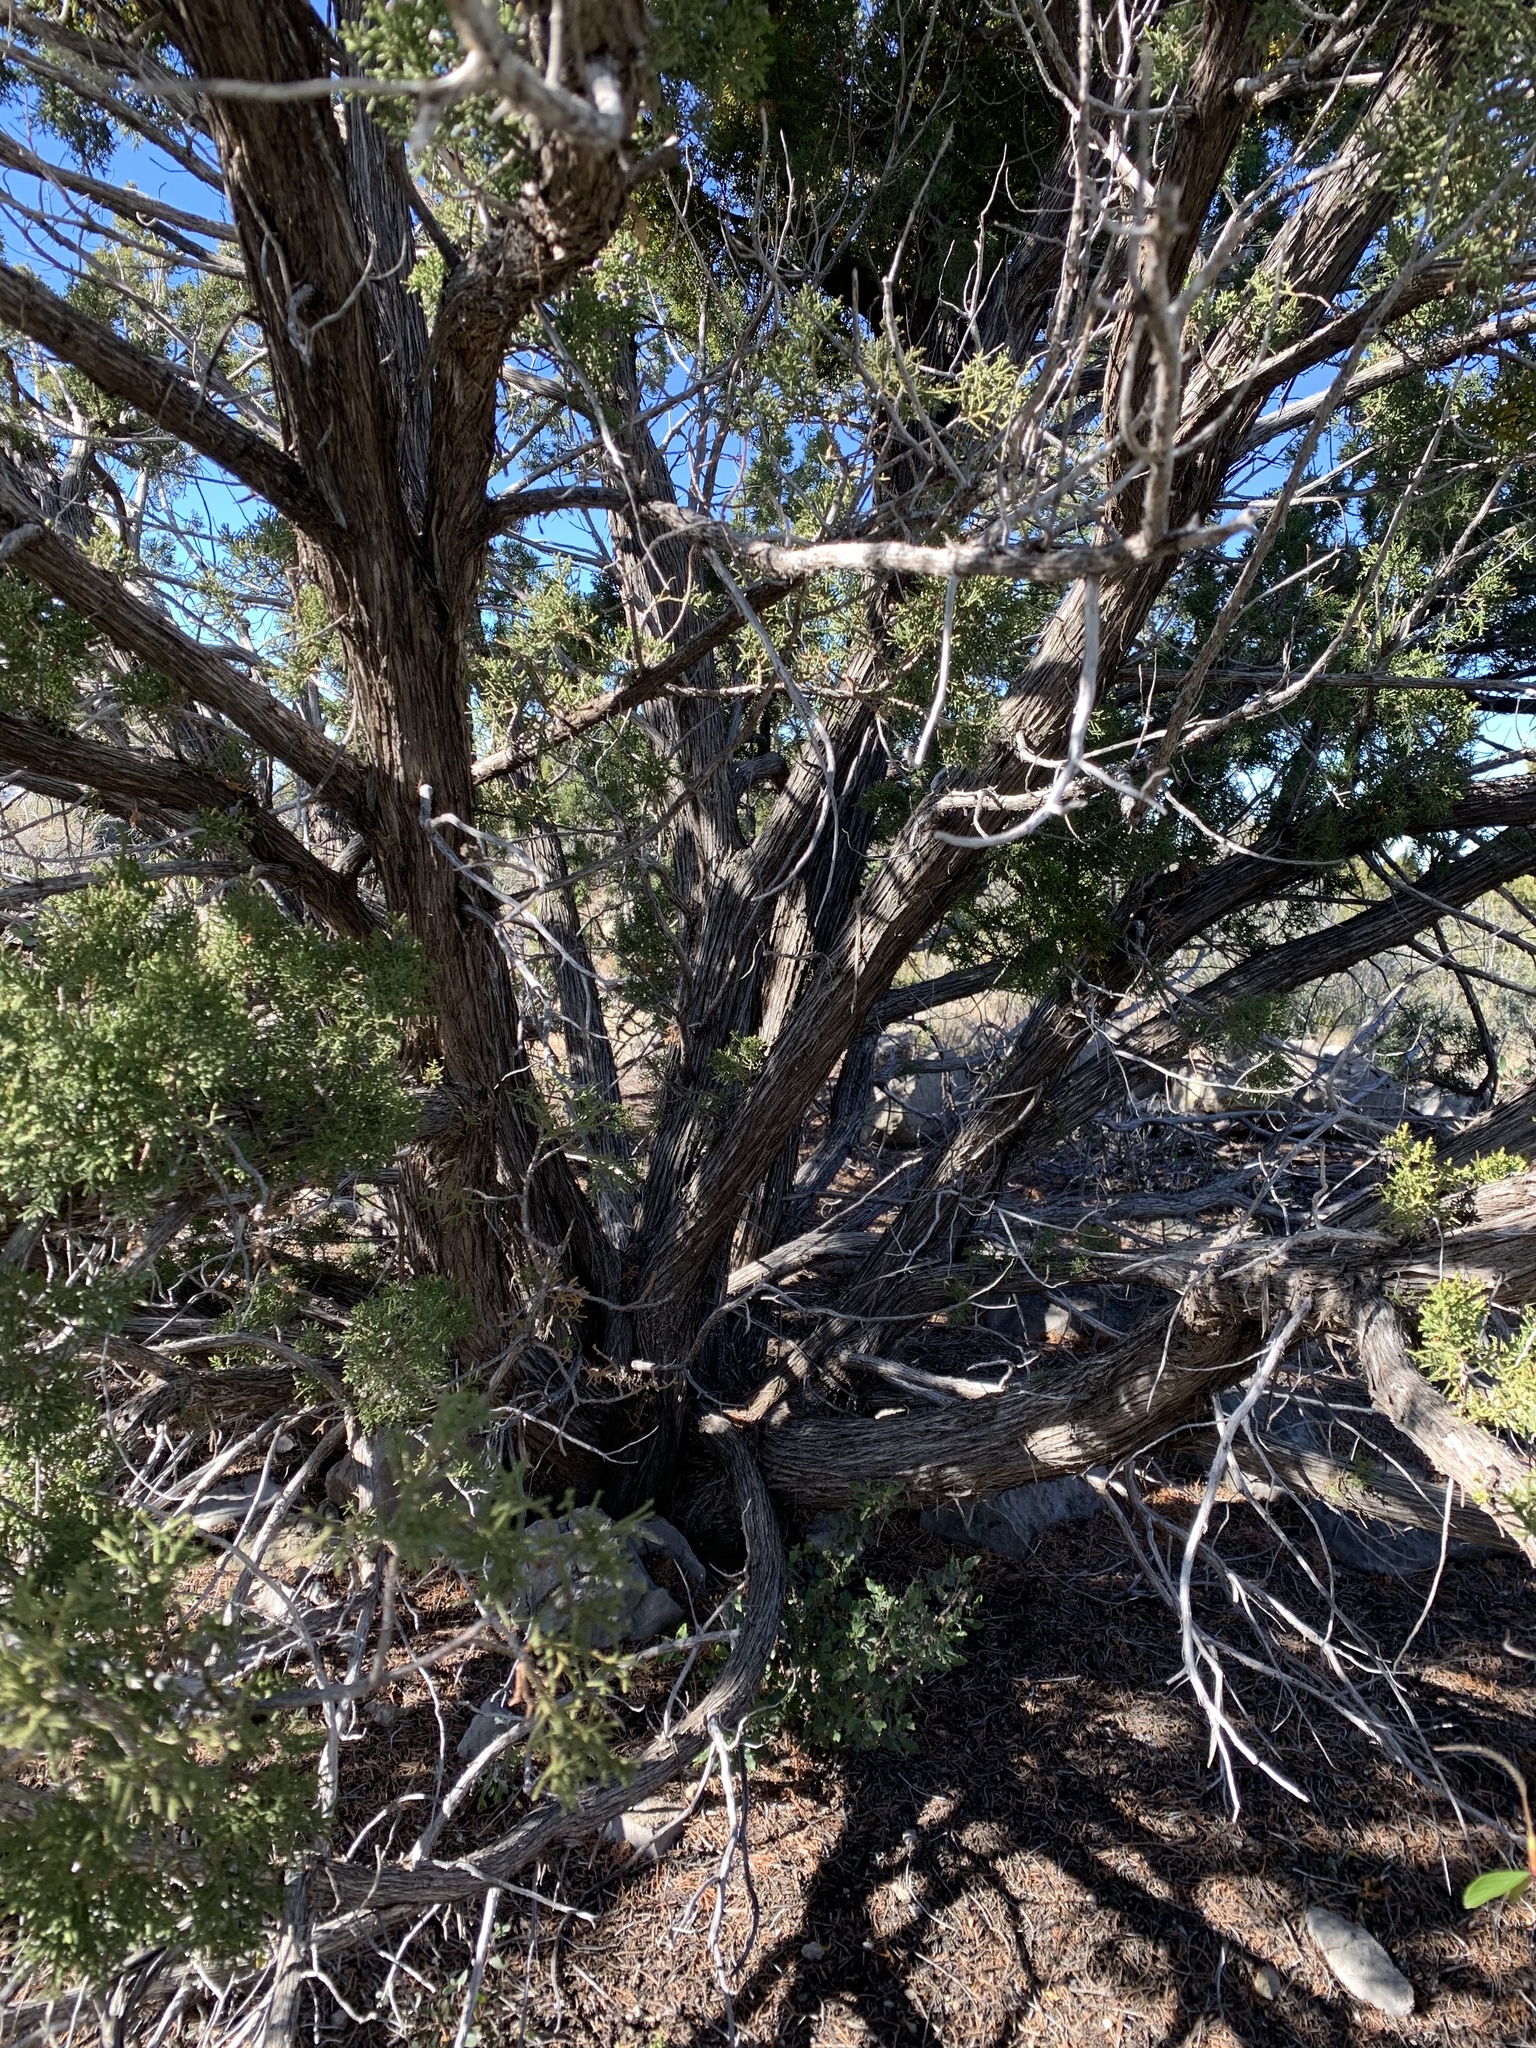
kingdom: Plantae
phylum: Tracheophyta
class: Pinopsida
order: Pinales
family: Cupressaceae
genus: Juniperus
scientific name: Juniperus monosperma
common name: One-seed juniper
